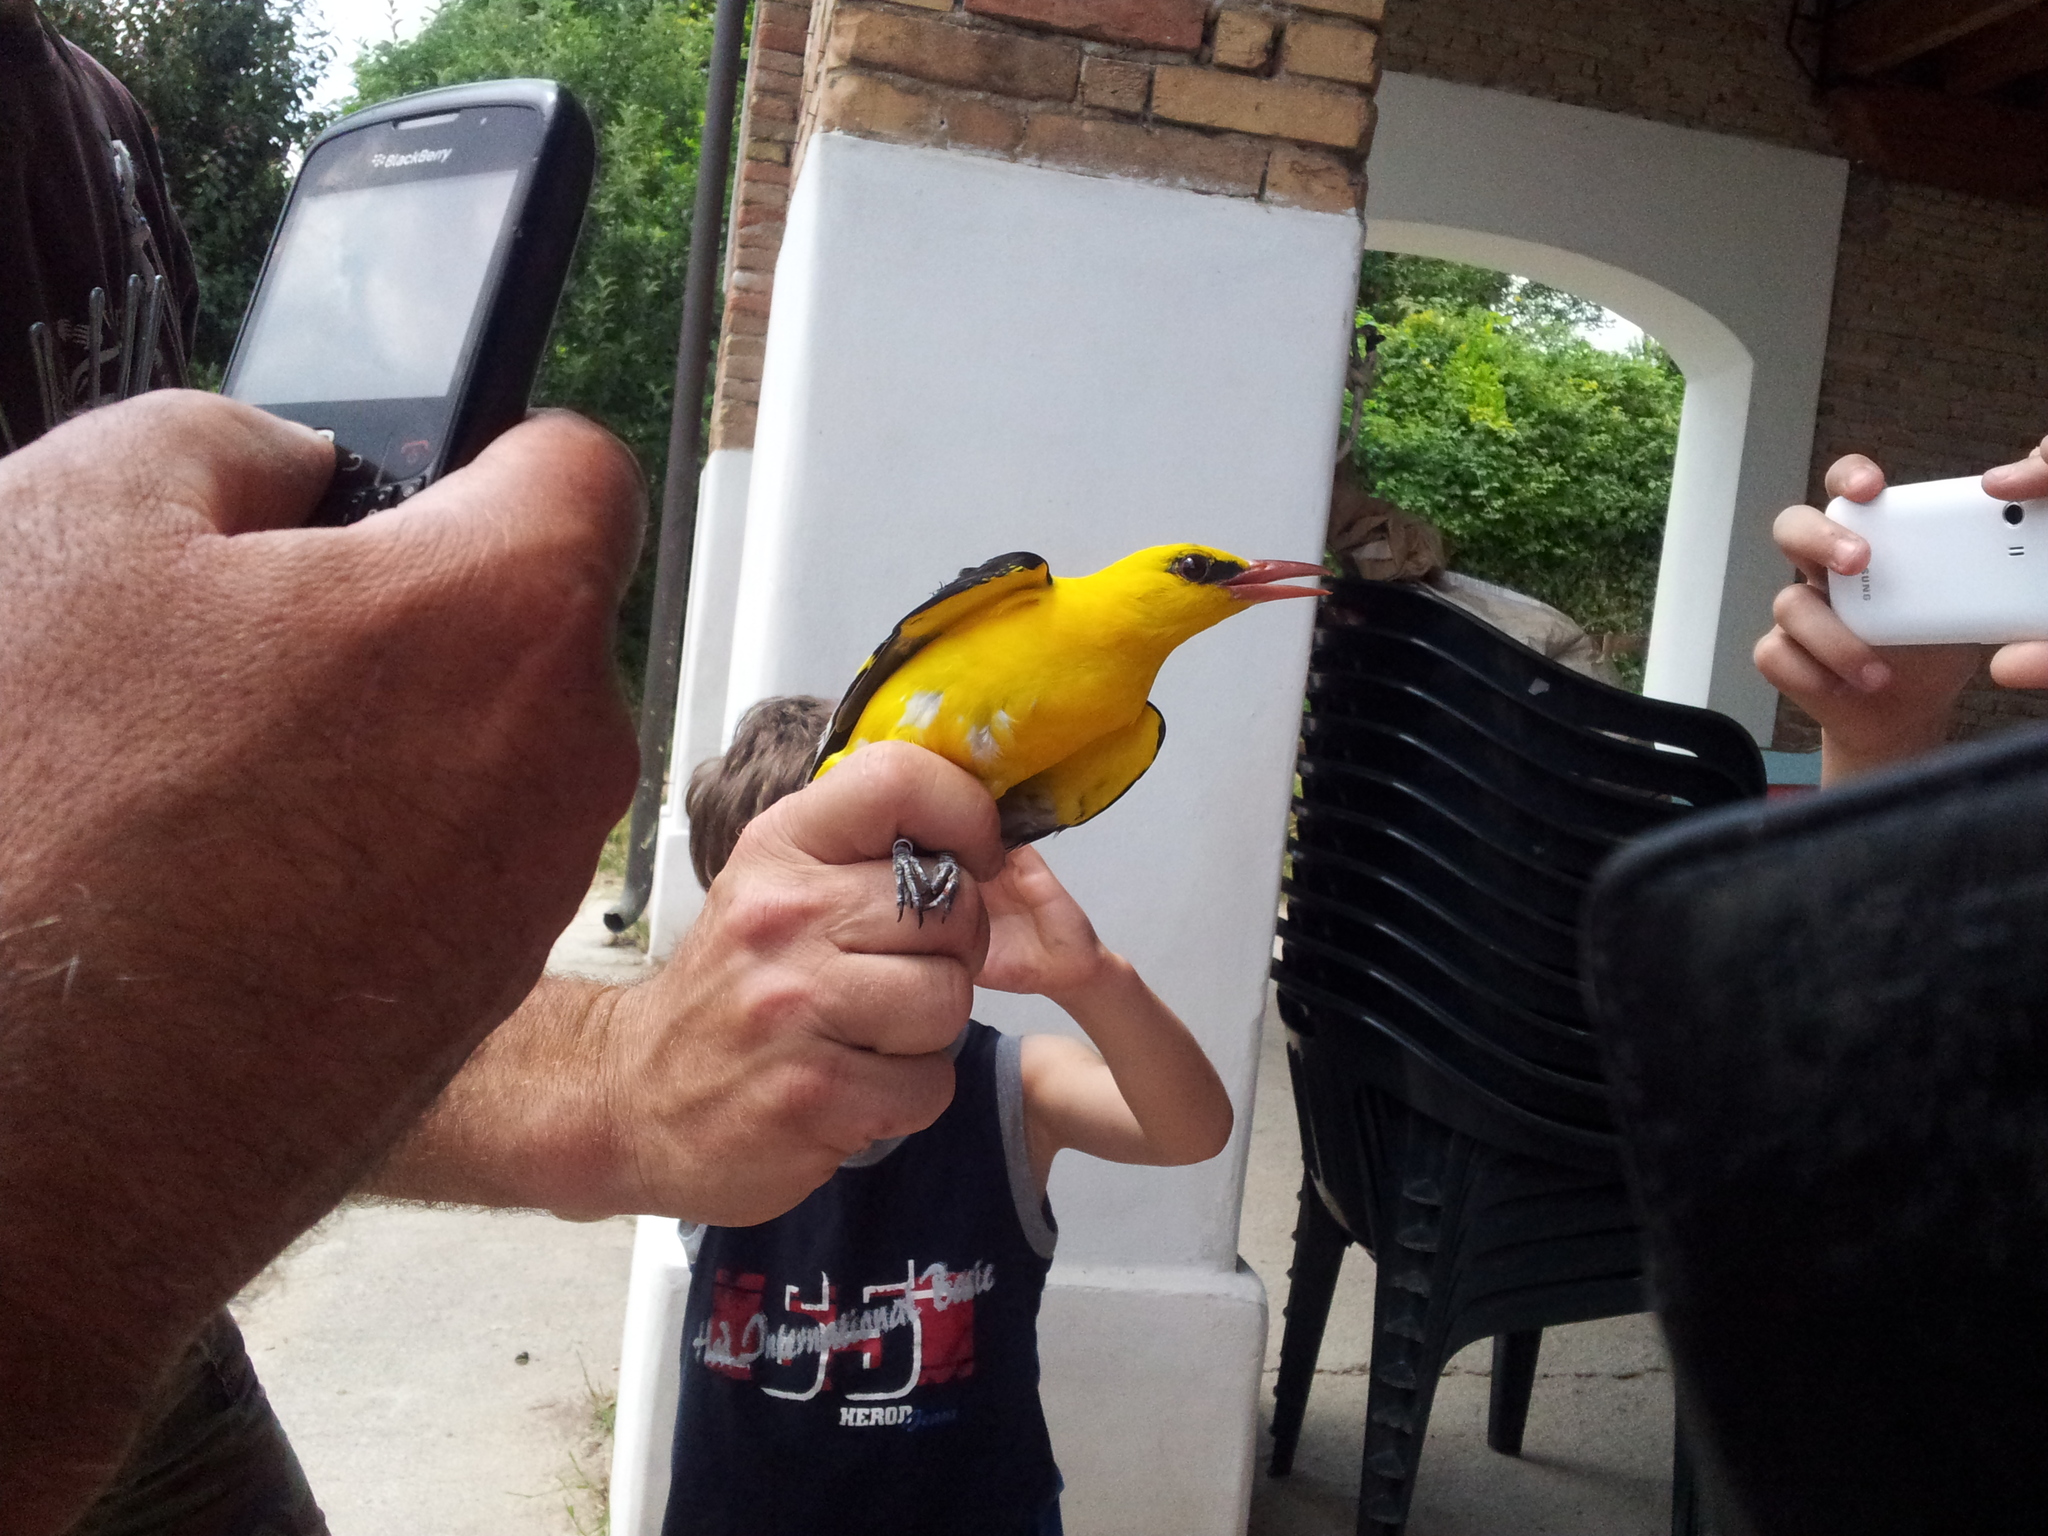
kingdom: Animalia
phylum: Chordata
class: Aves
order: Passeriformes
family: Oriolidae
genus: Oriolus
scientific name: Oriolus oriolus
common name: Eurasian golden oriole
